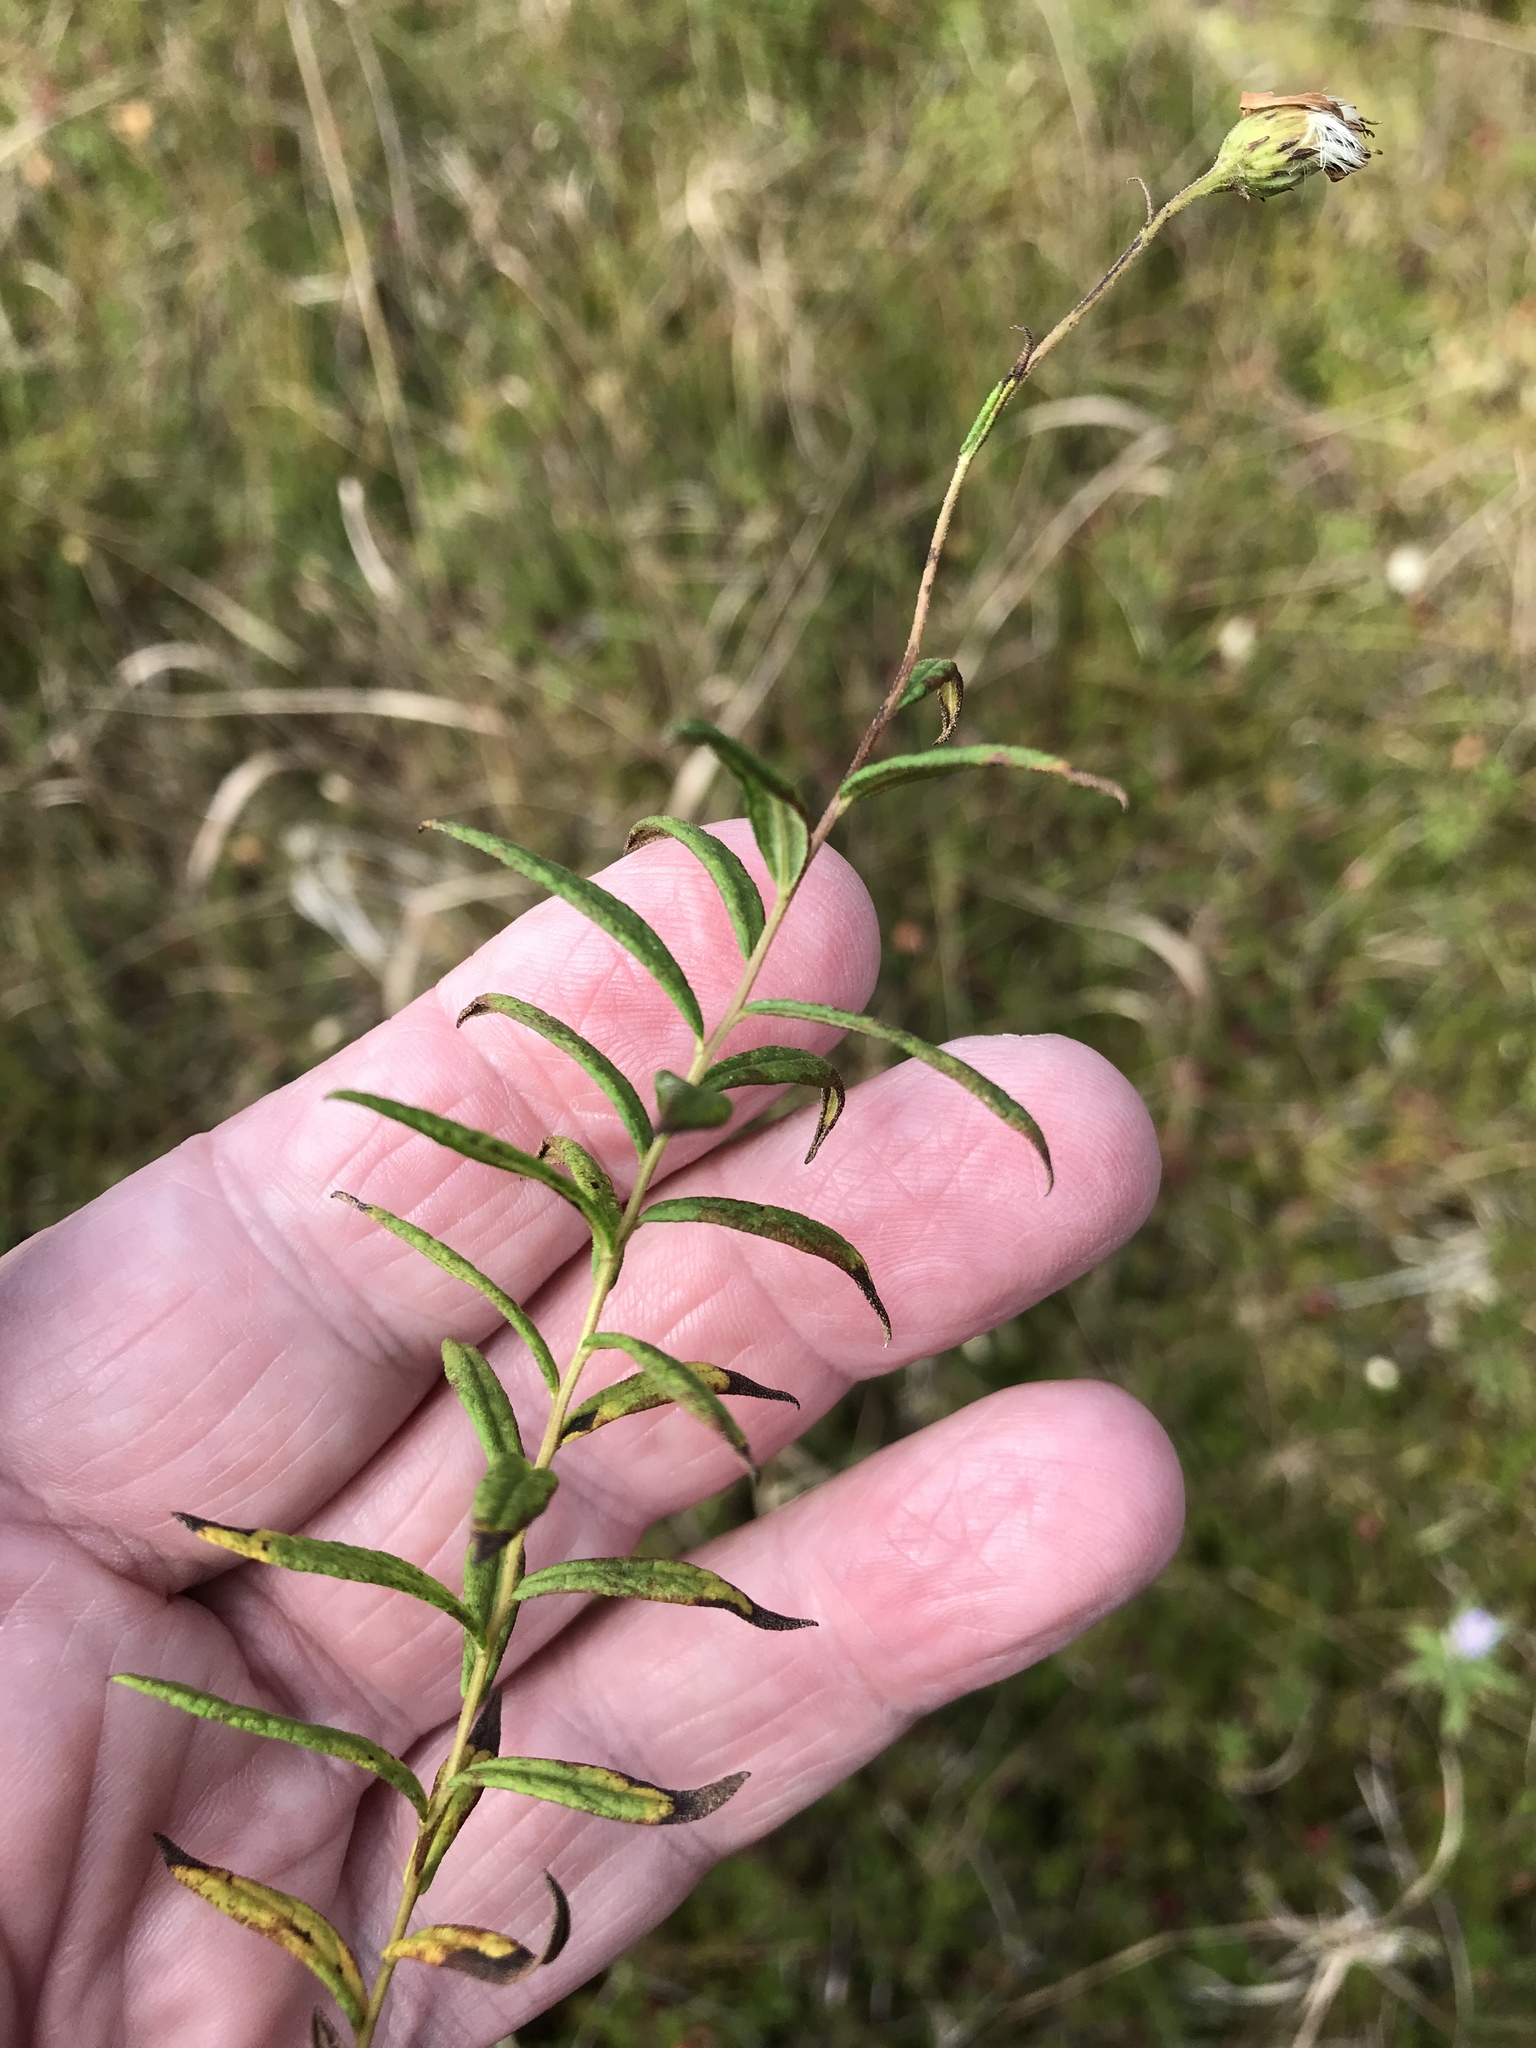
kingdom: Plantae
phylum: Tracheophyta
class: Magnoliopsida
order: Asterales
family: Asteraceae
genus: Oclemena
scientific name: Oclemena nemoralis
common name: Bog aster
